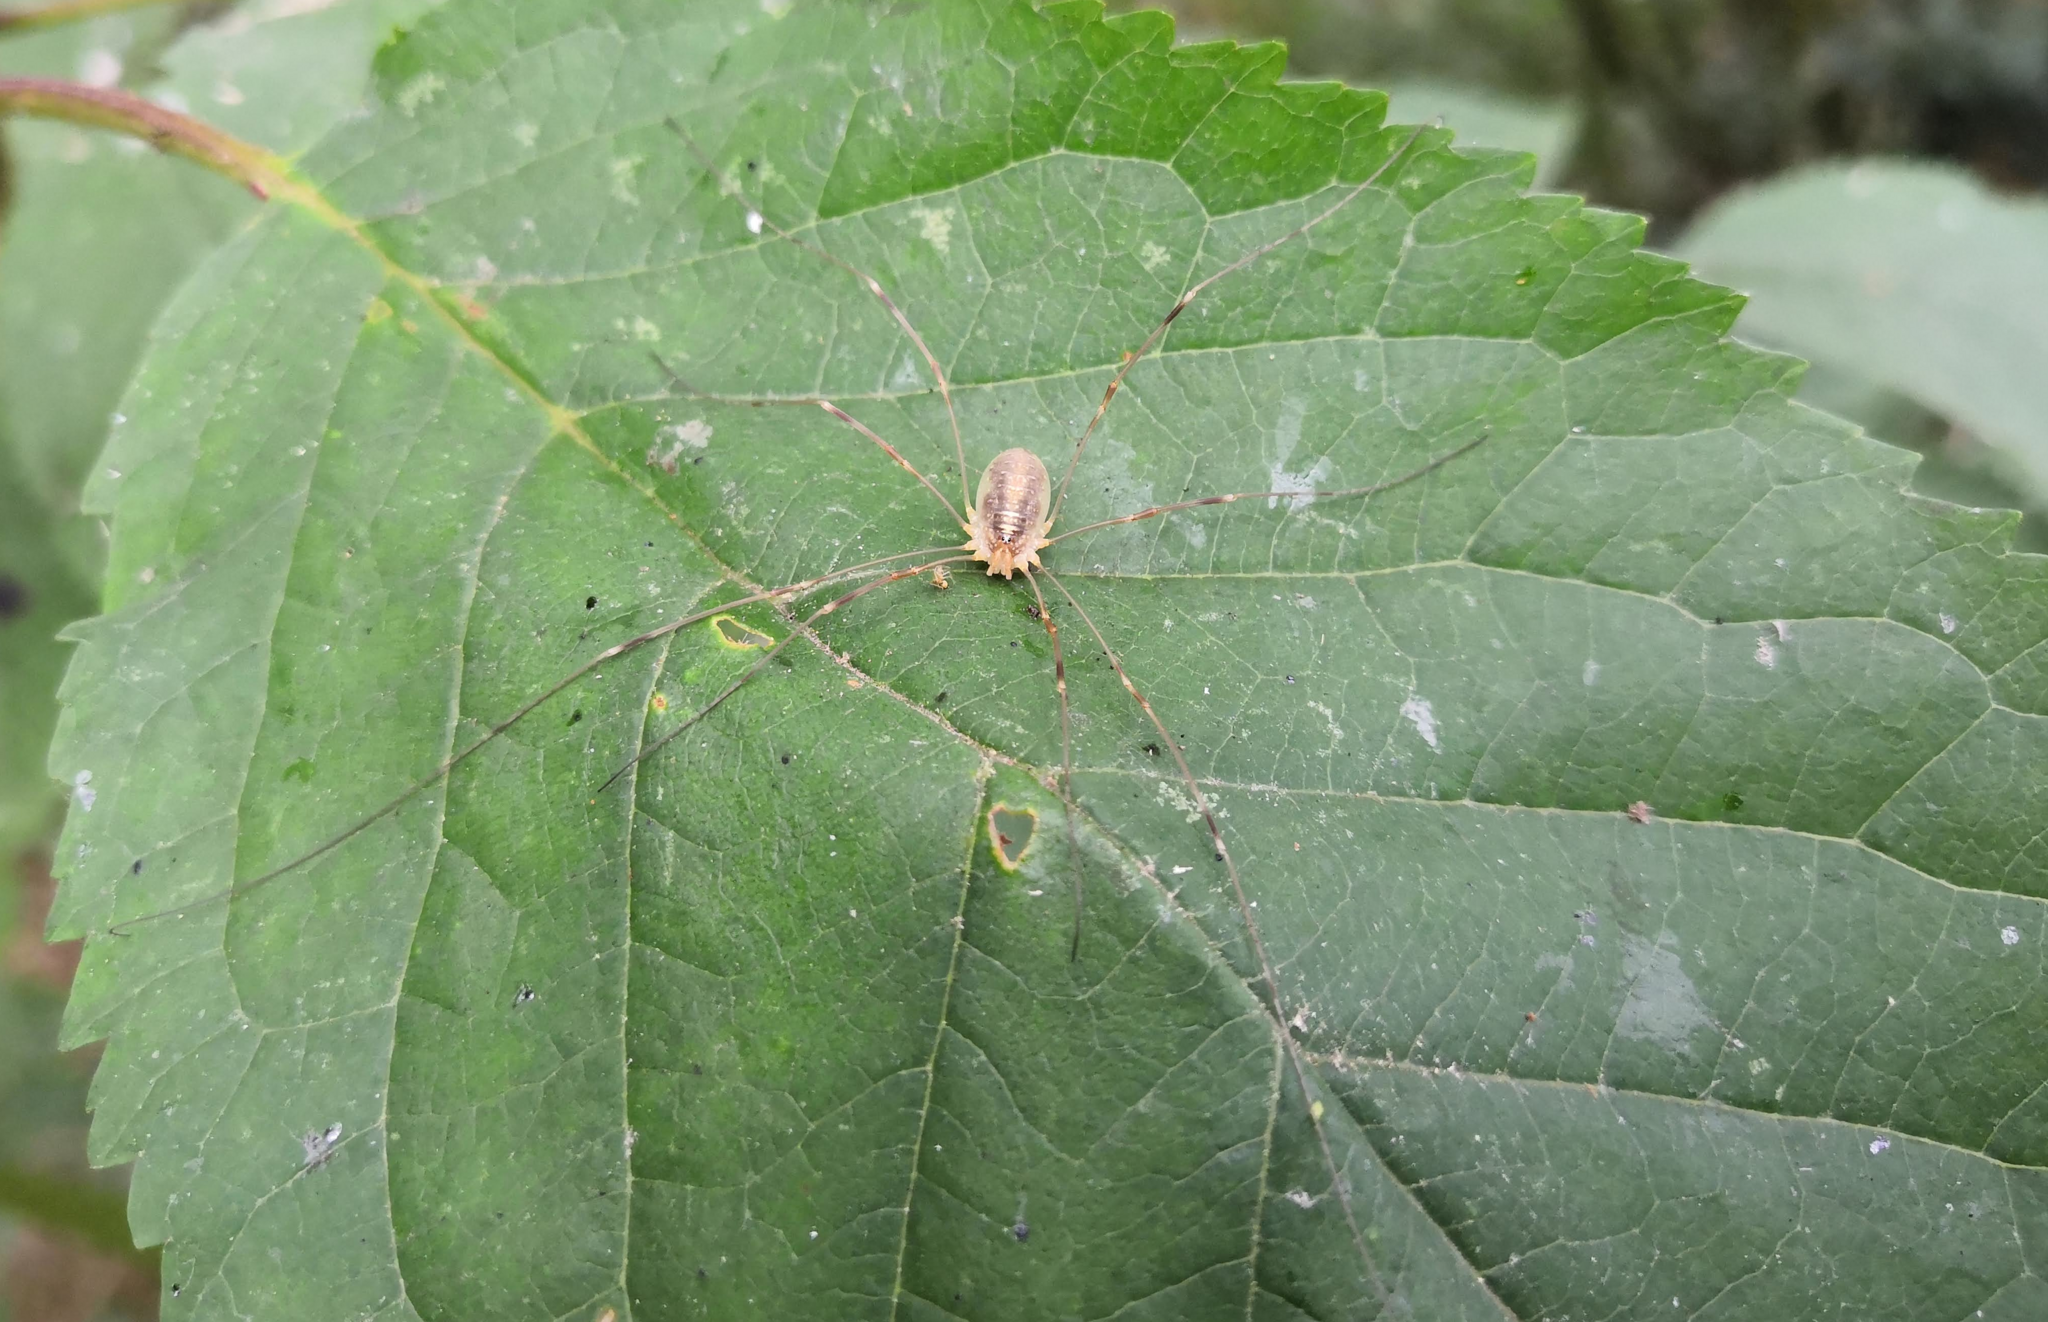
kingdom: Animalia
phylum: Arthropoda
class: Arachnida
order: Opiliones
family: Phalangiidae
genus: Opilio
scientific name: Opilio canestrinii
